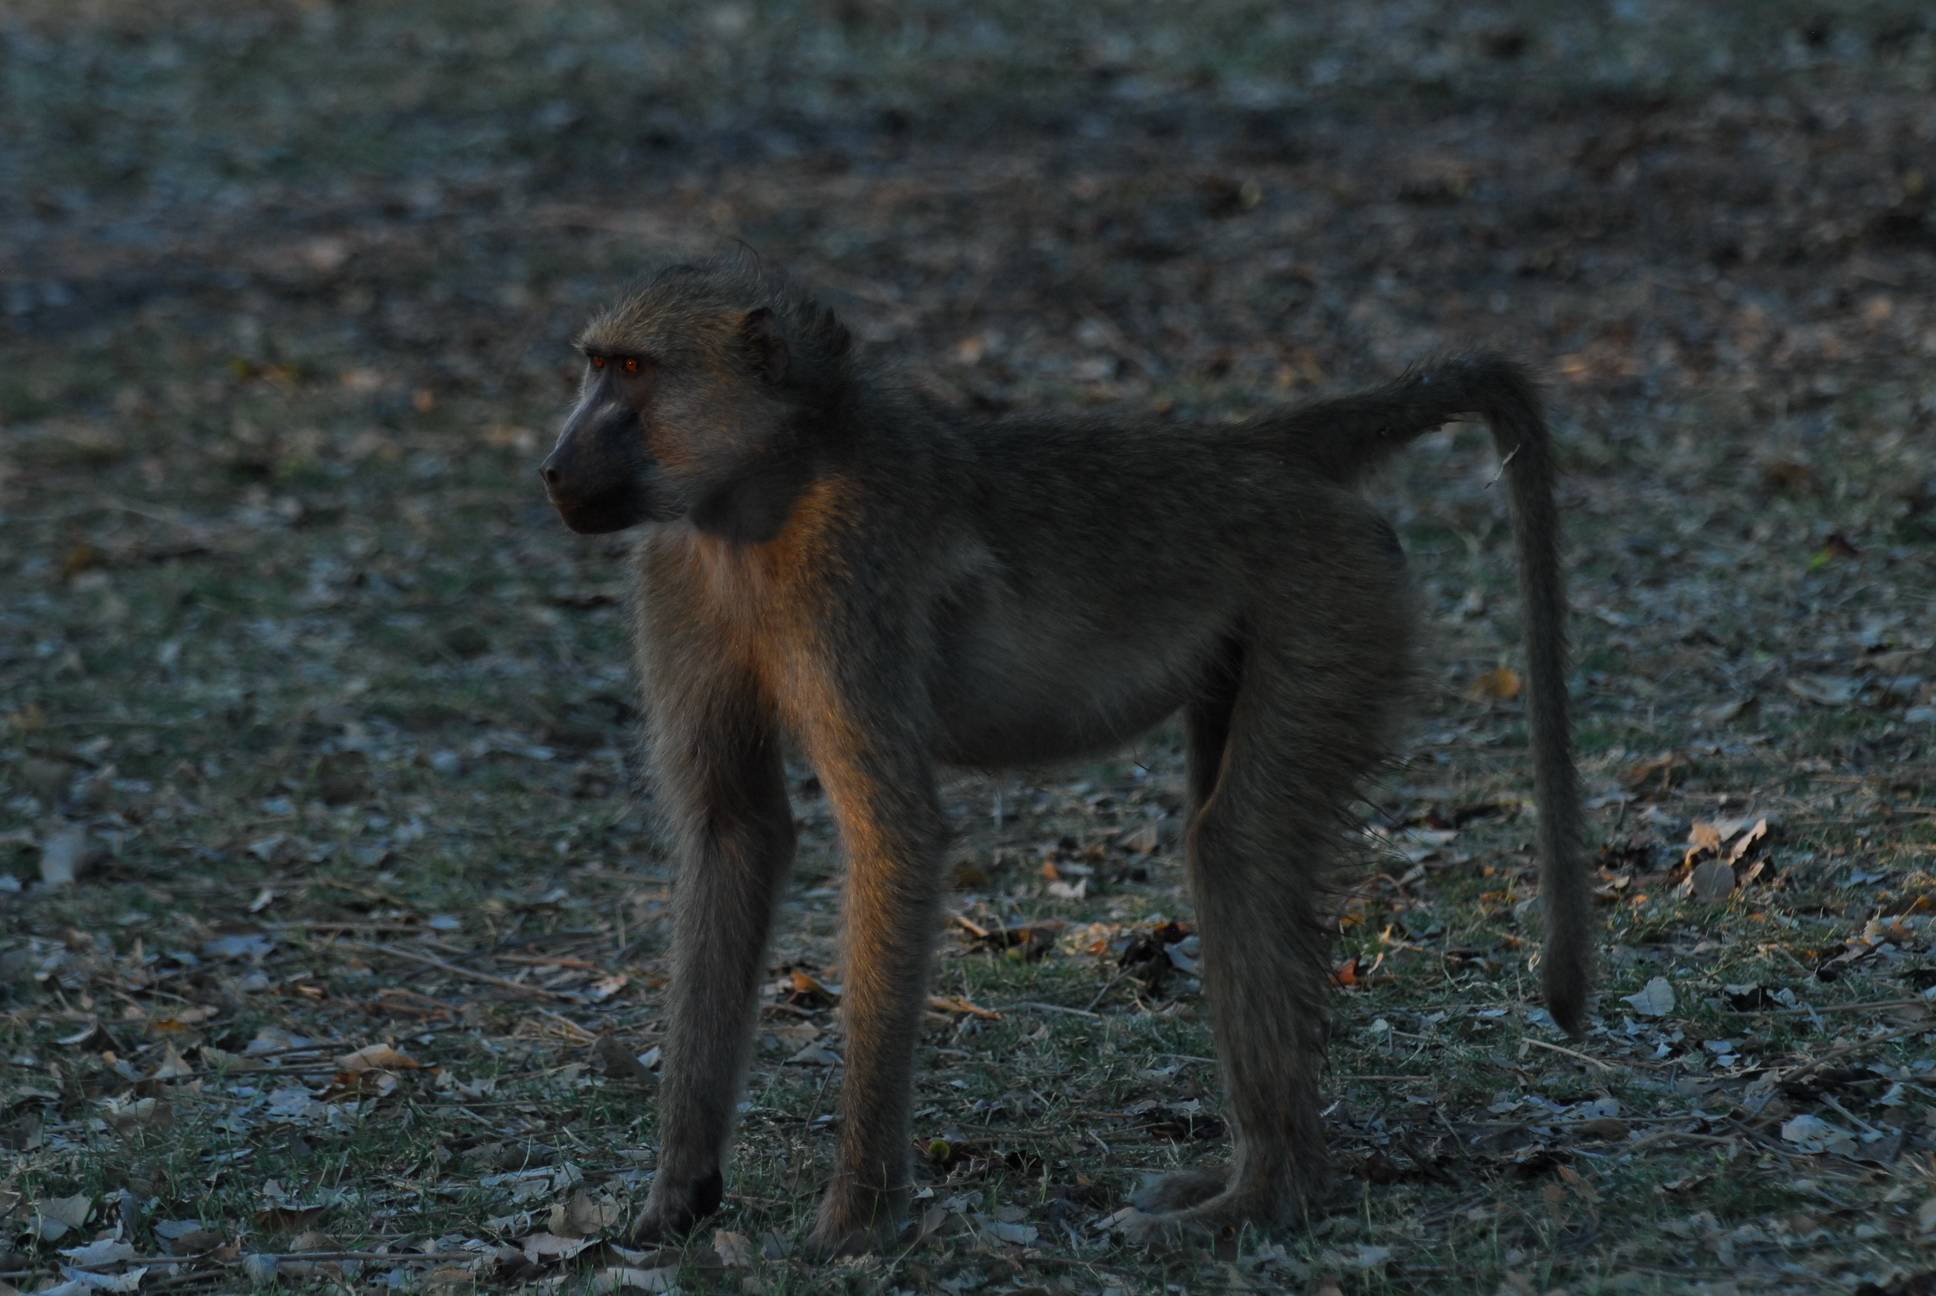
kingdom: Animalia
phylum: Chordata
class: Mammalia
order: Primates
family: Cercopithecidae
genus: Papio
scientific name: Papio ursinus
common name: Chacma baboon
